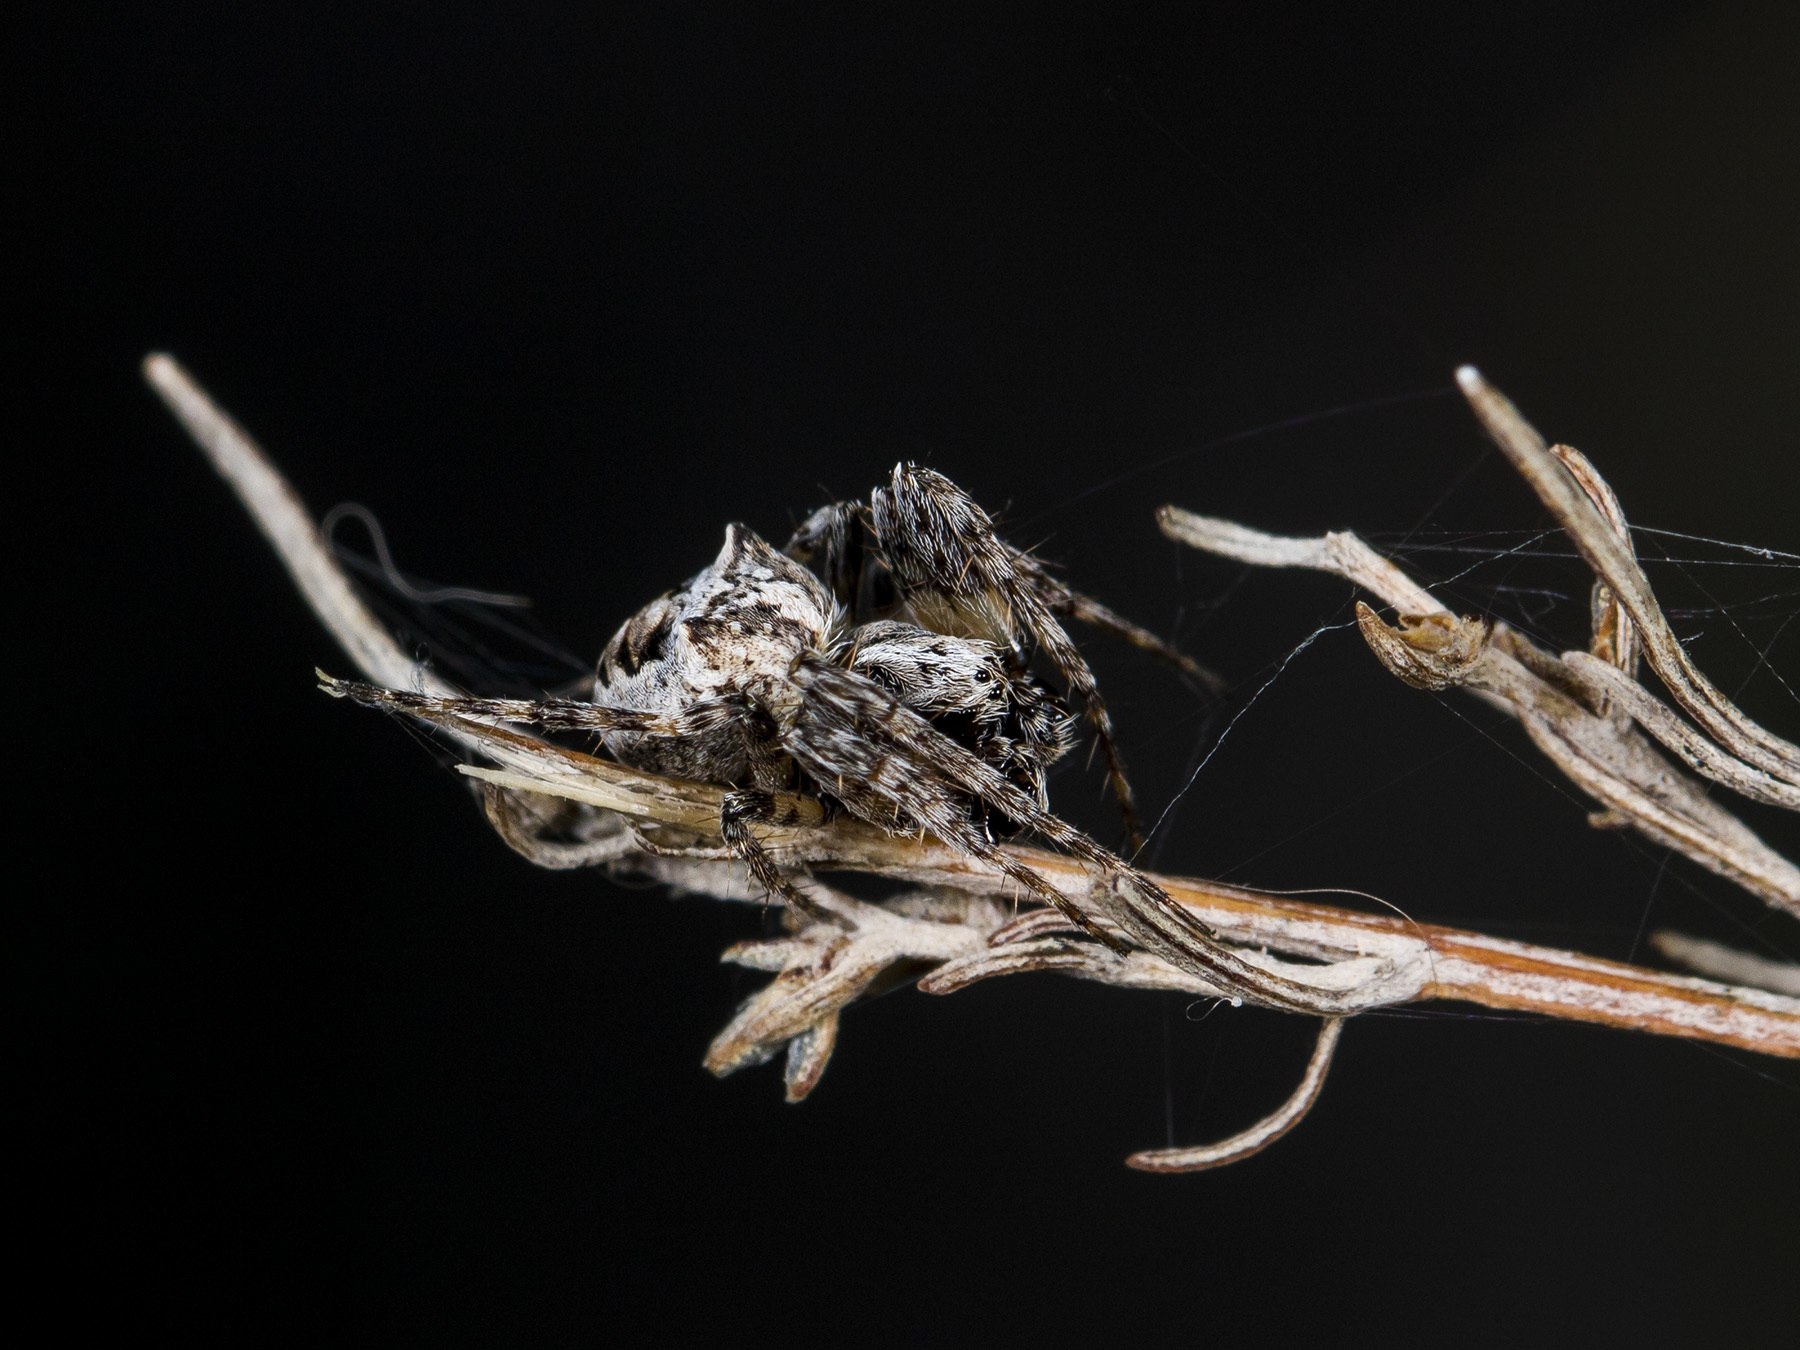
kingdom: Animalia
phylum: Arthropoda
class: Arachnida
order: Araneae
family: Araneidae
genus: Gibbaranea
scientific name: Gibbaranea ullrichi
